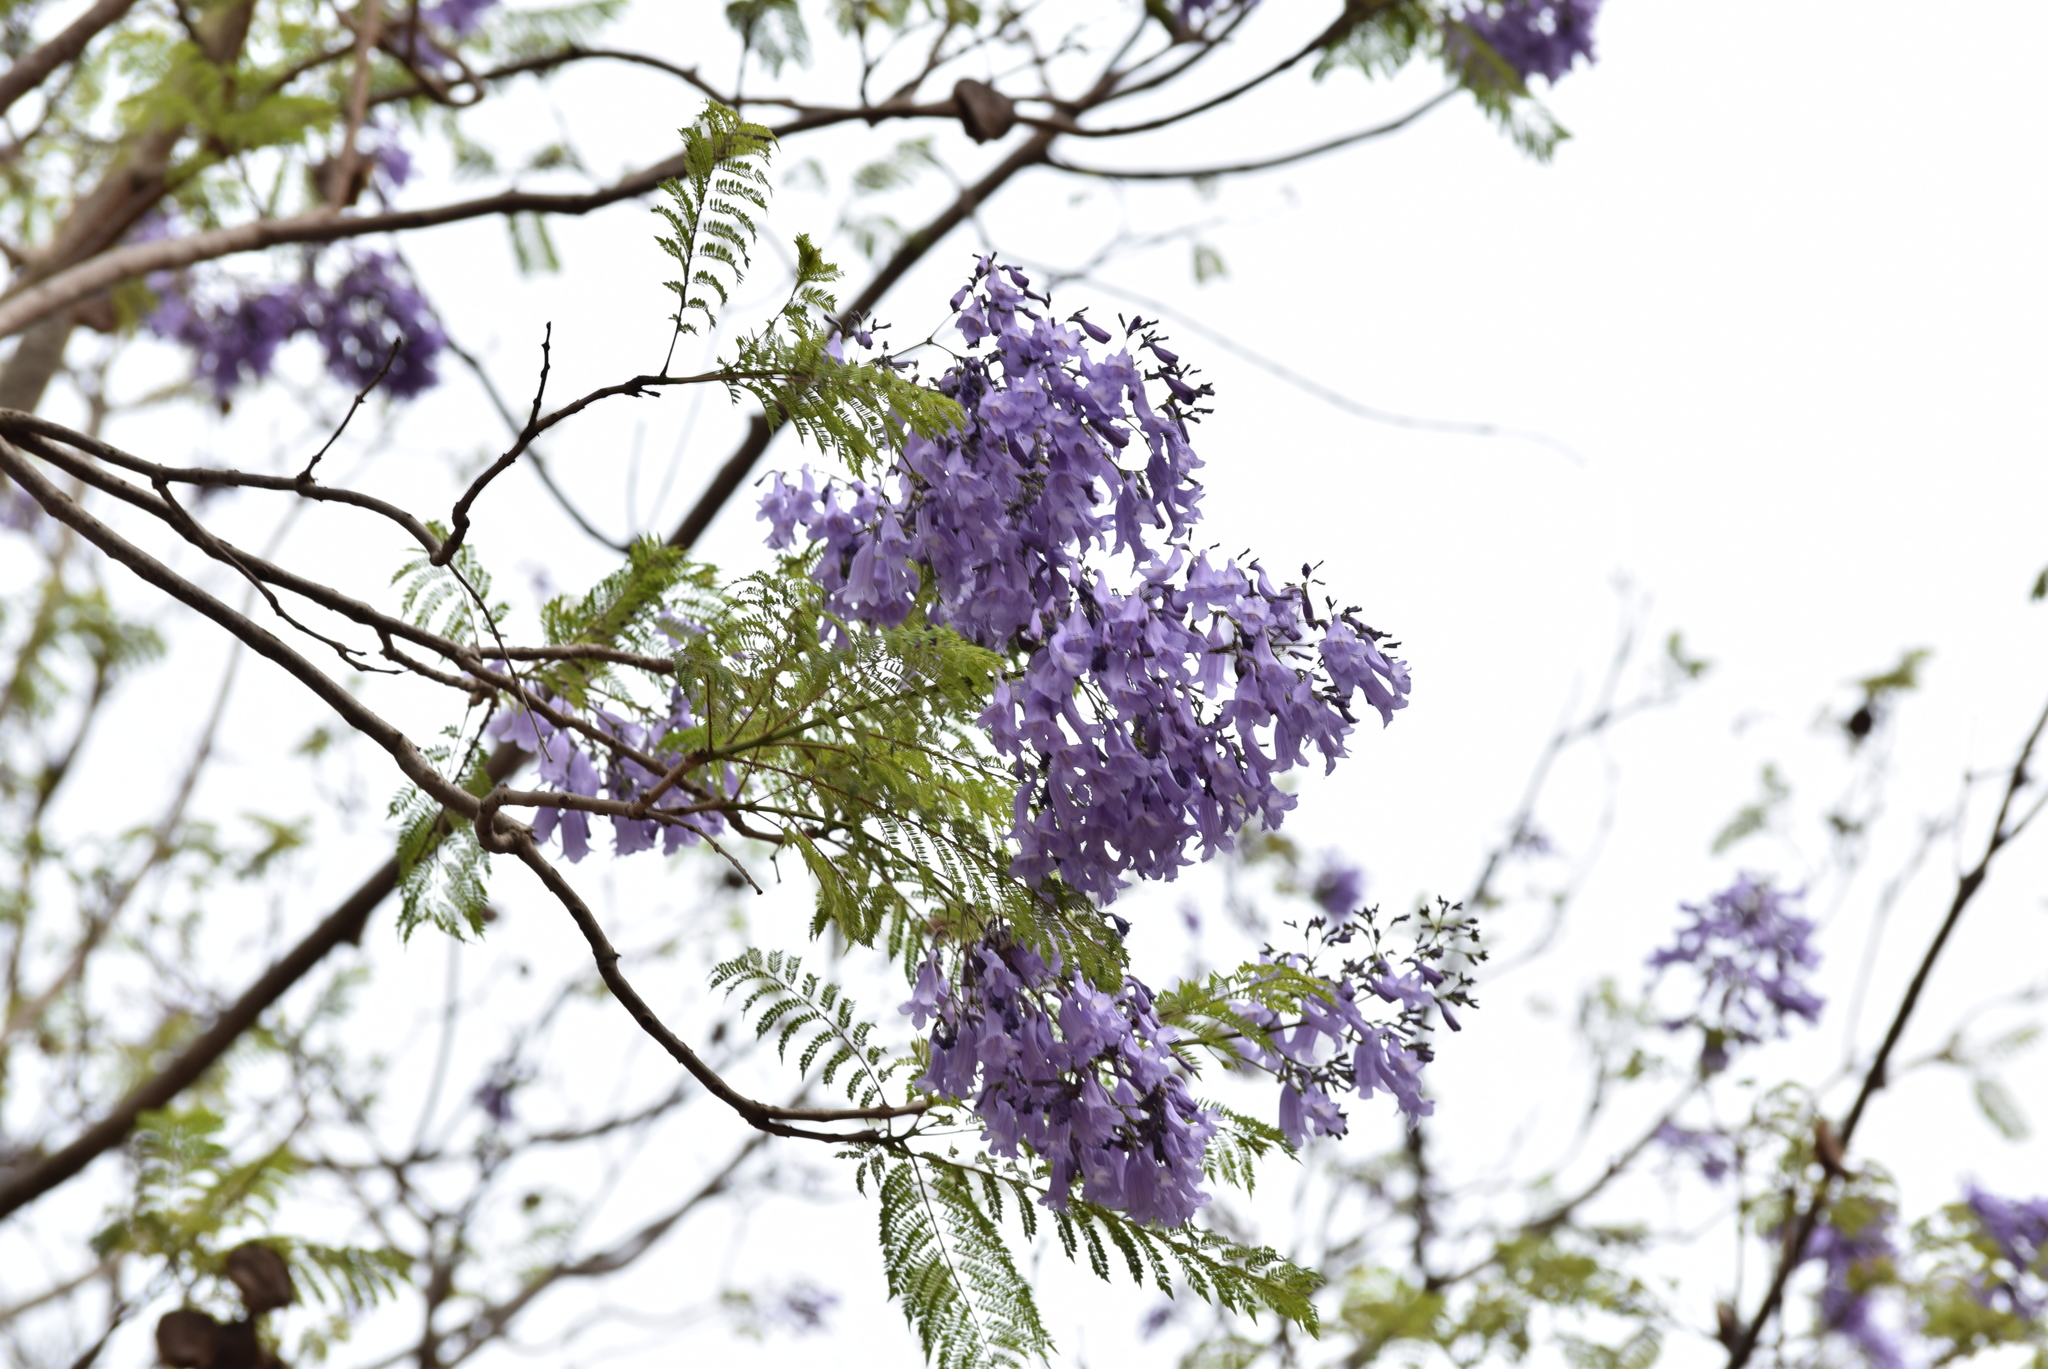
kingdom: Plantae
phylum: Tracheophyta
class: Magnoliopsida
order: Lamiales
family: Bignoniaceae
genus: Jacaranda
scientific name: Jacaranda mimosifolia
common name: Black poui
